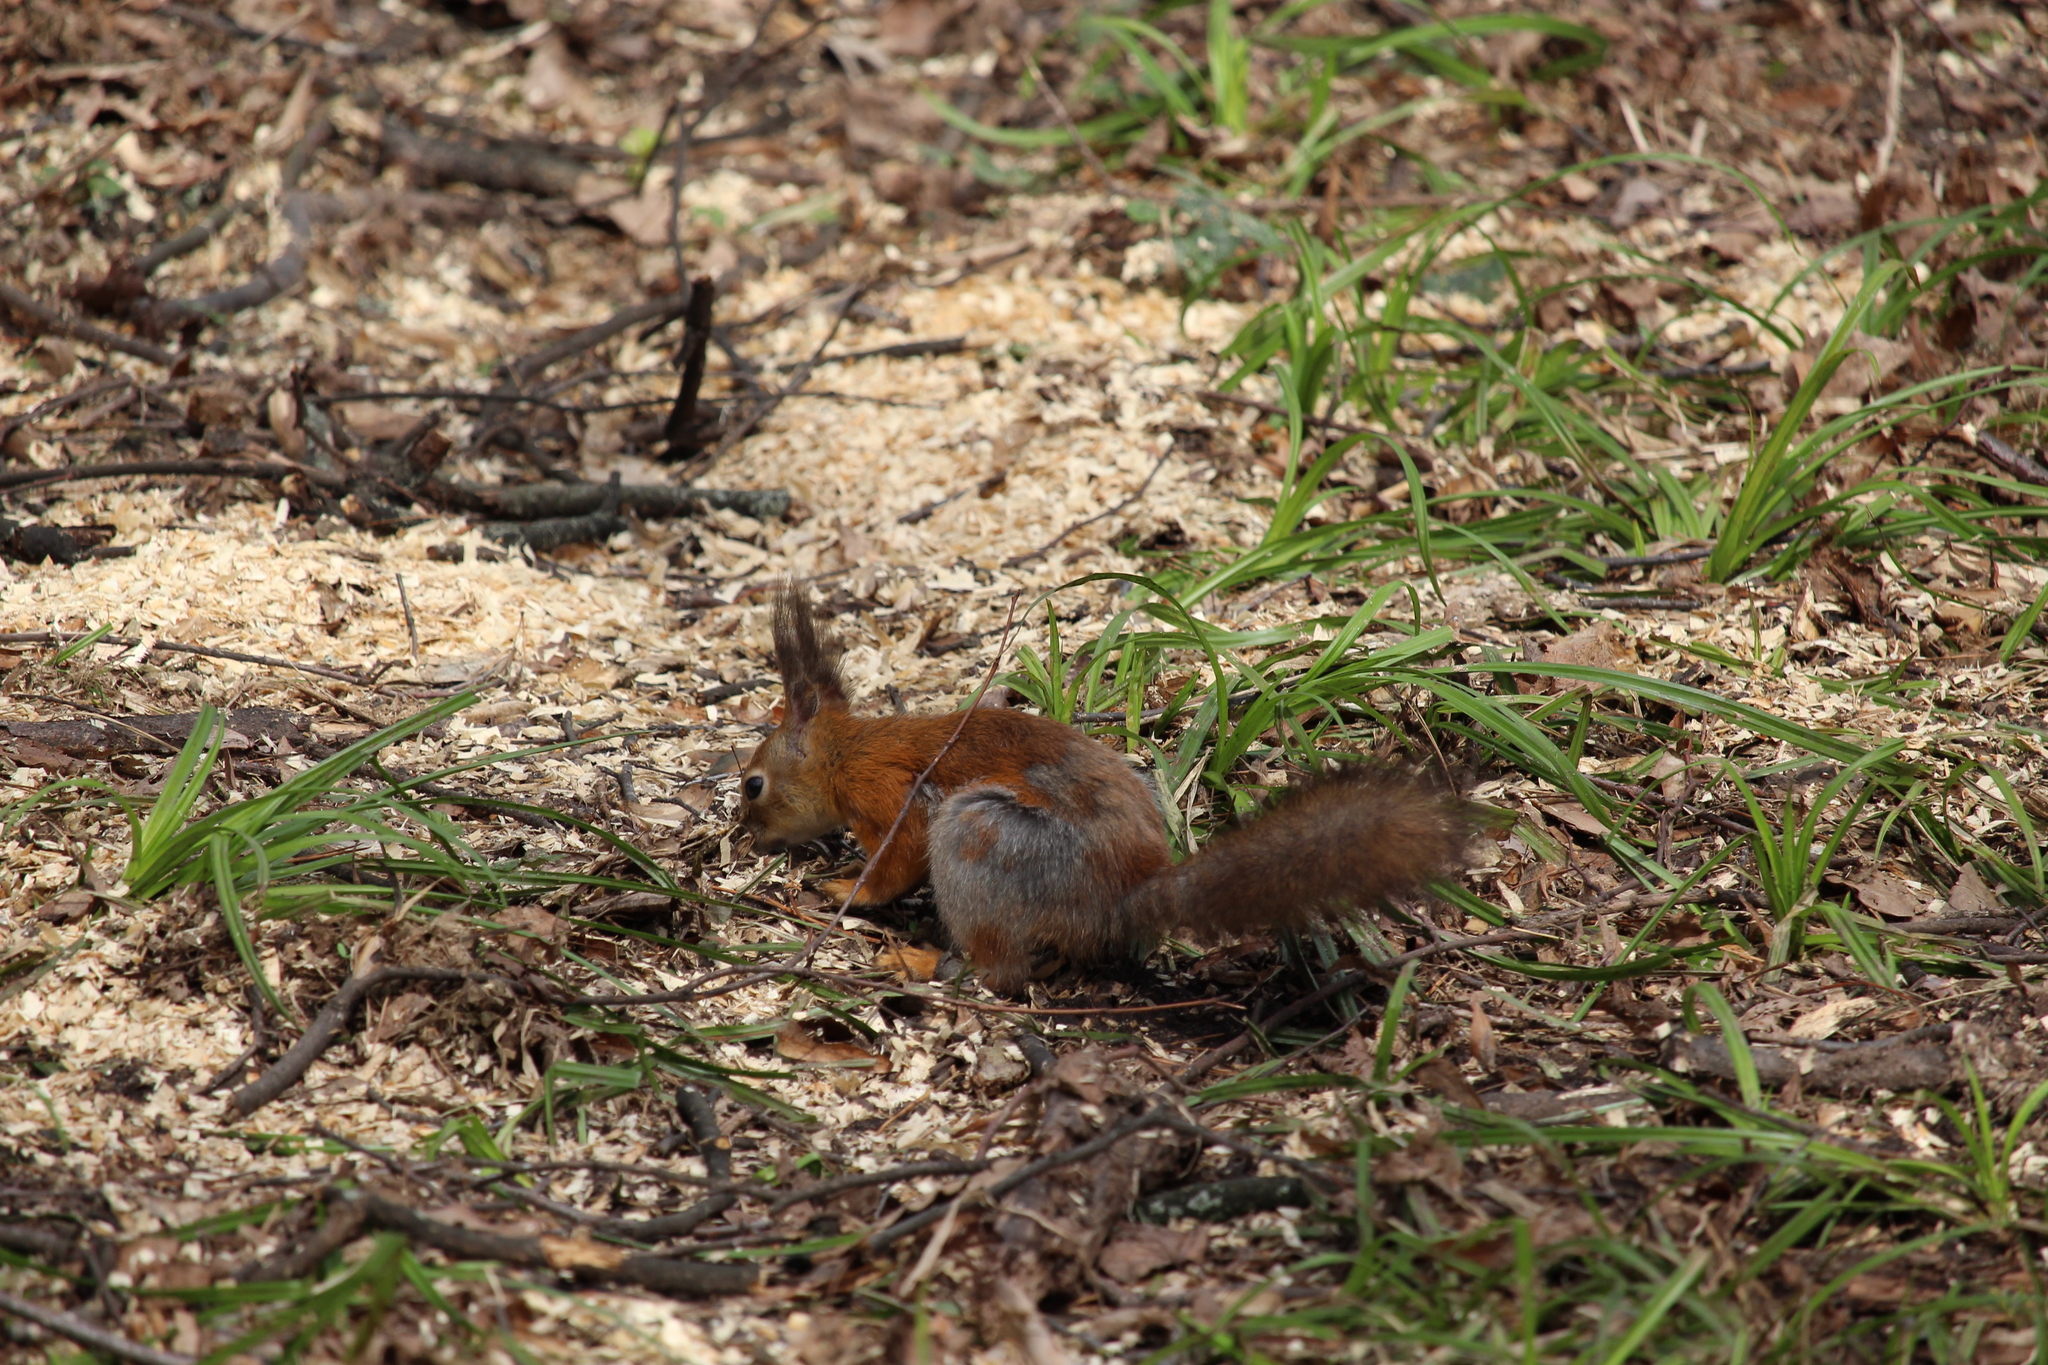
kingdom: Animalia
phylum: Chordata
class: Mammalia
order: Rodentia
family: Sciuridae
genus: Sciurus
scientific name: Sciurus vulgaris
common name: Eurasian red squirrel
